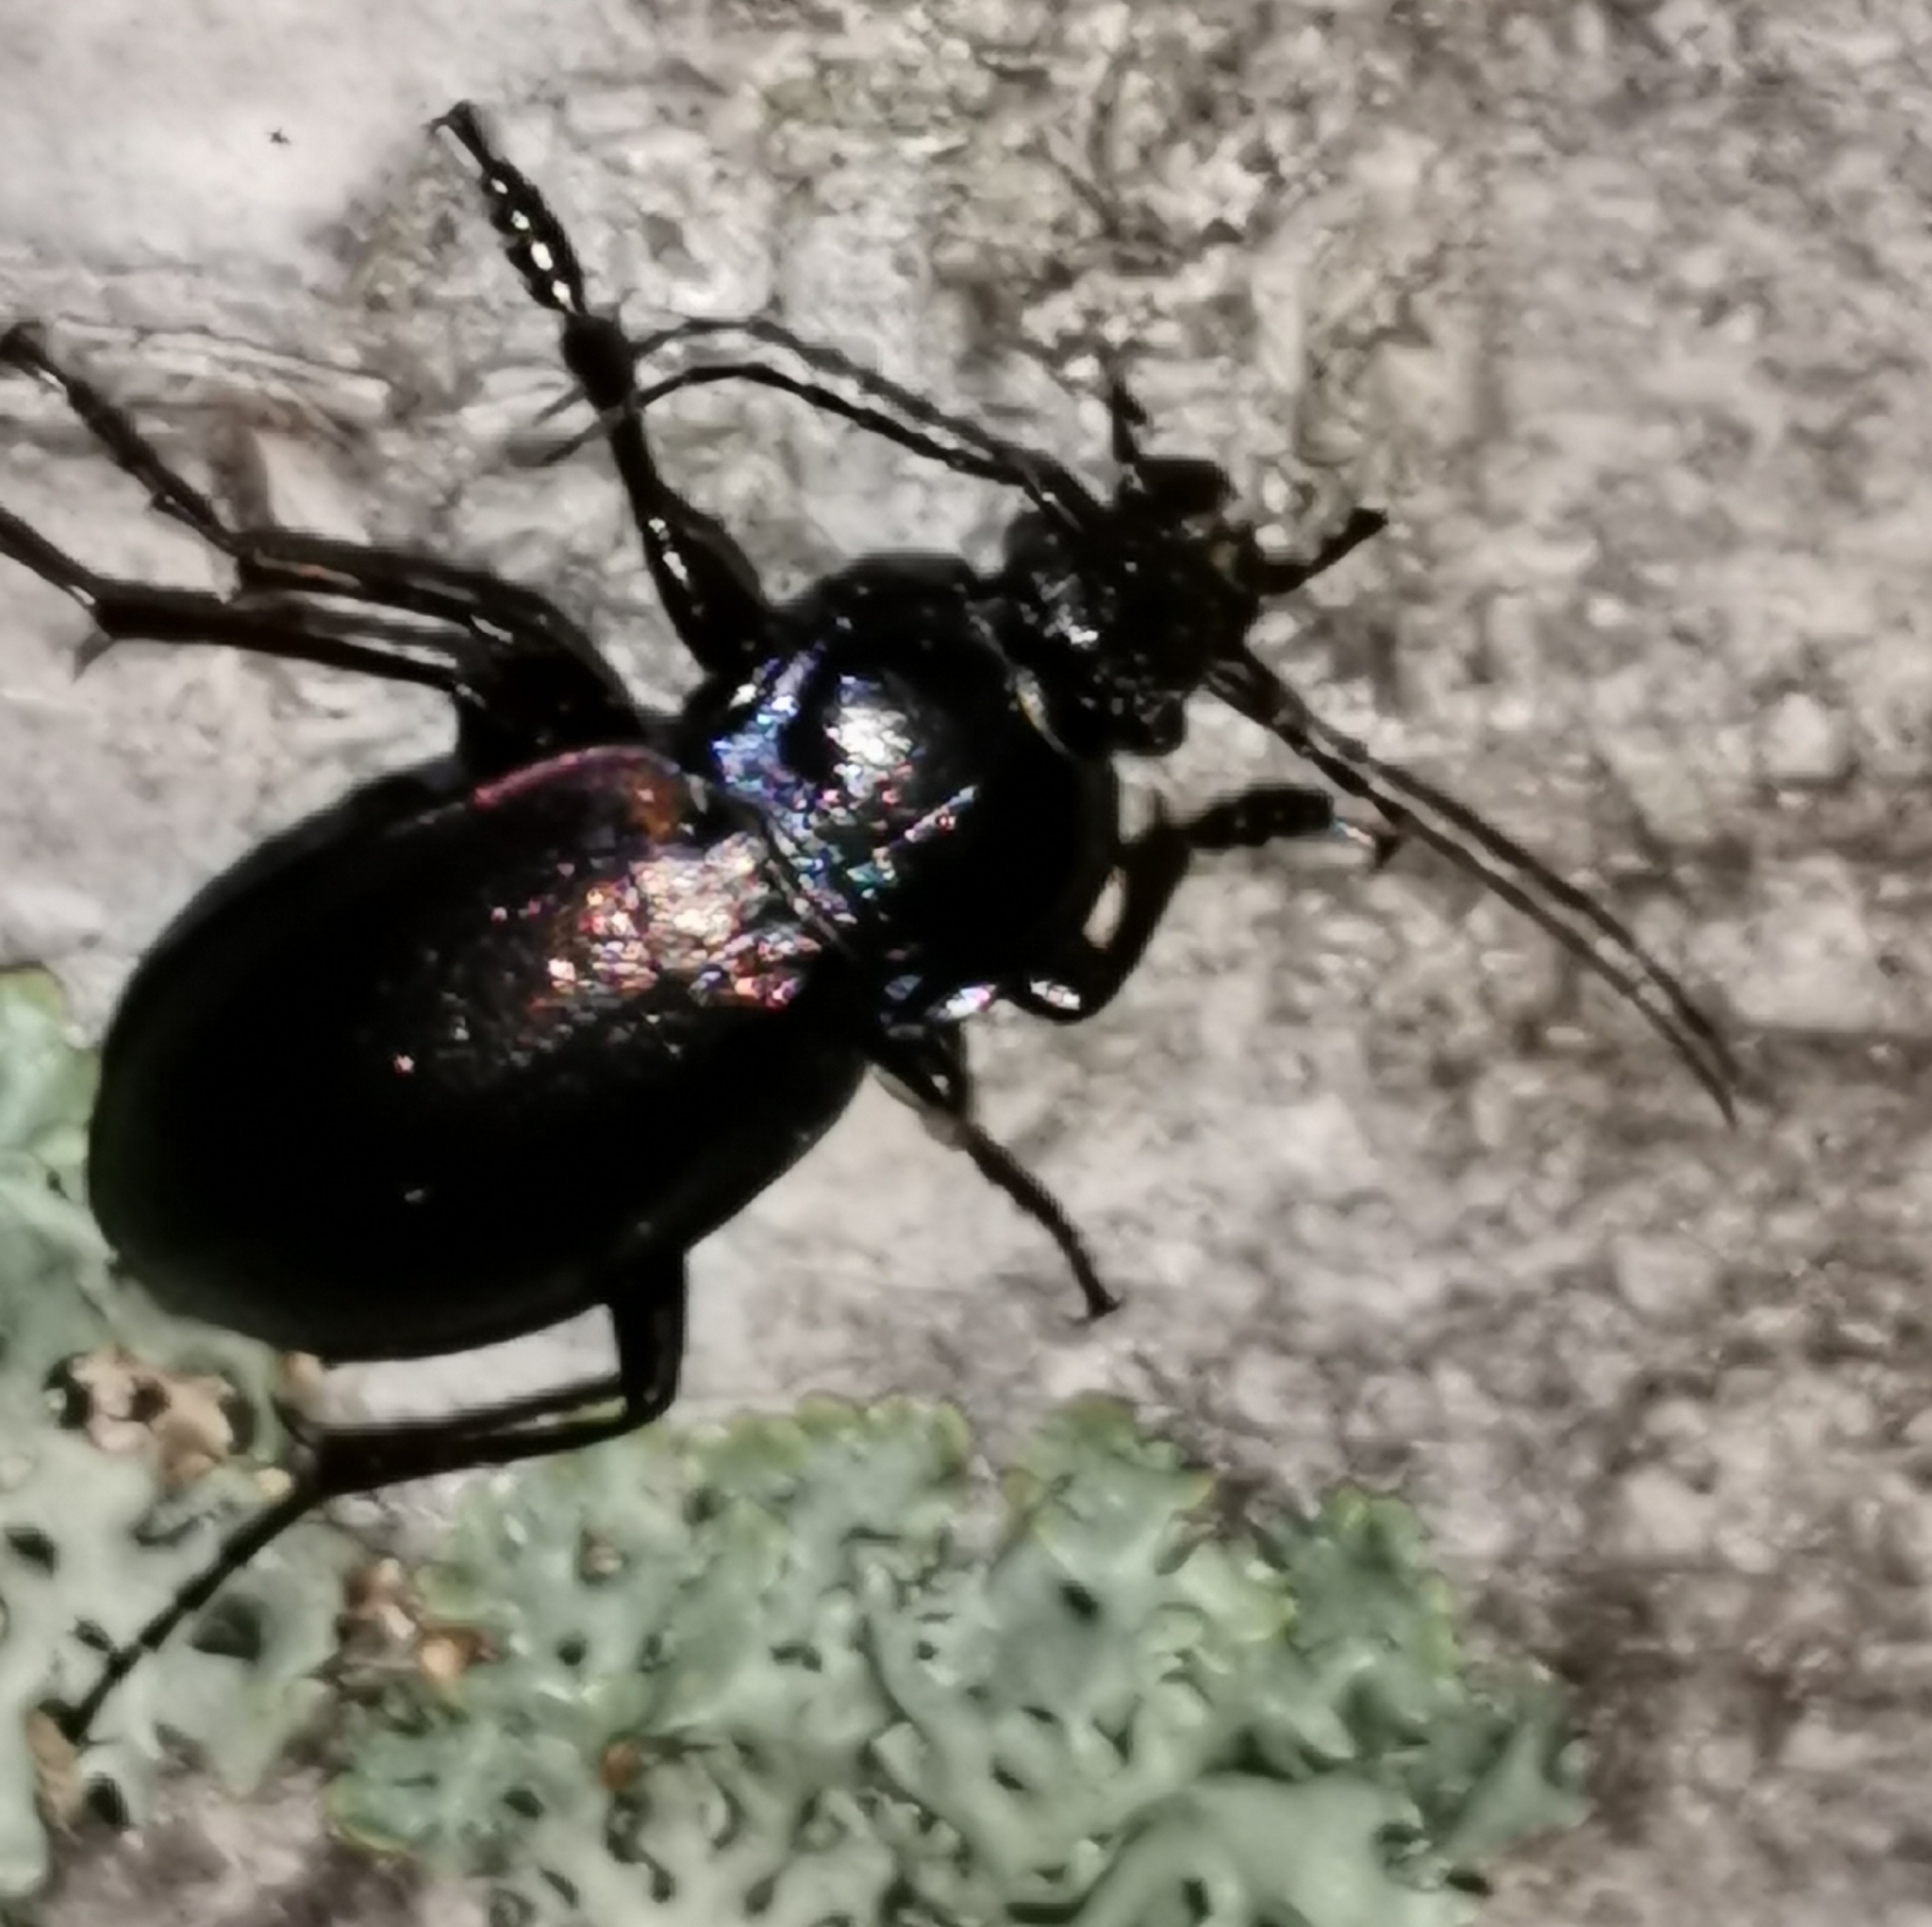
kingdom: Animalia
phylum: Arthropoda
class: Insecta
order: Coleoptera
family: Carabidae
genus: Carabus
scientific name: Carabus nemoralis
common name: European ground beetle
